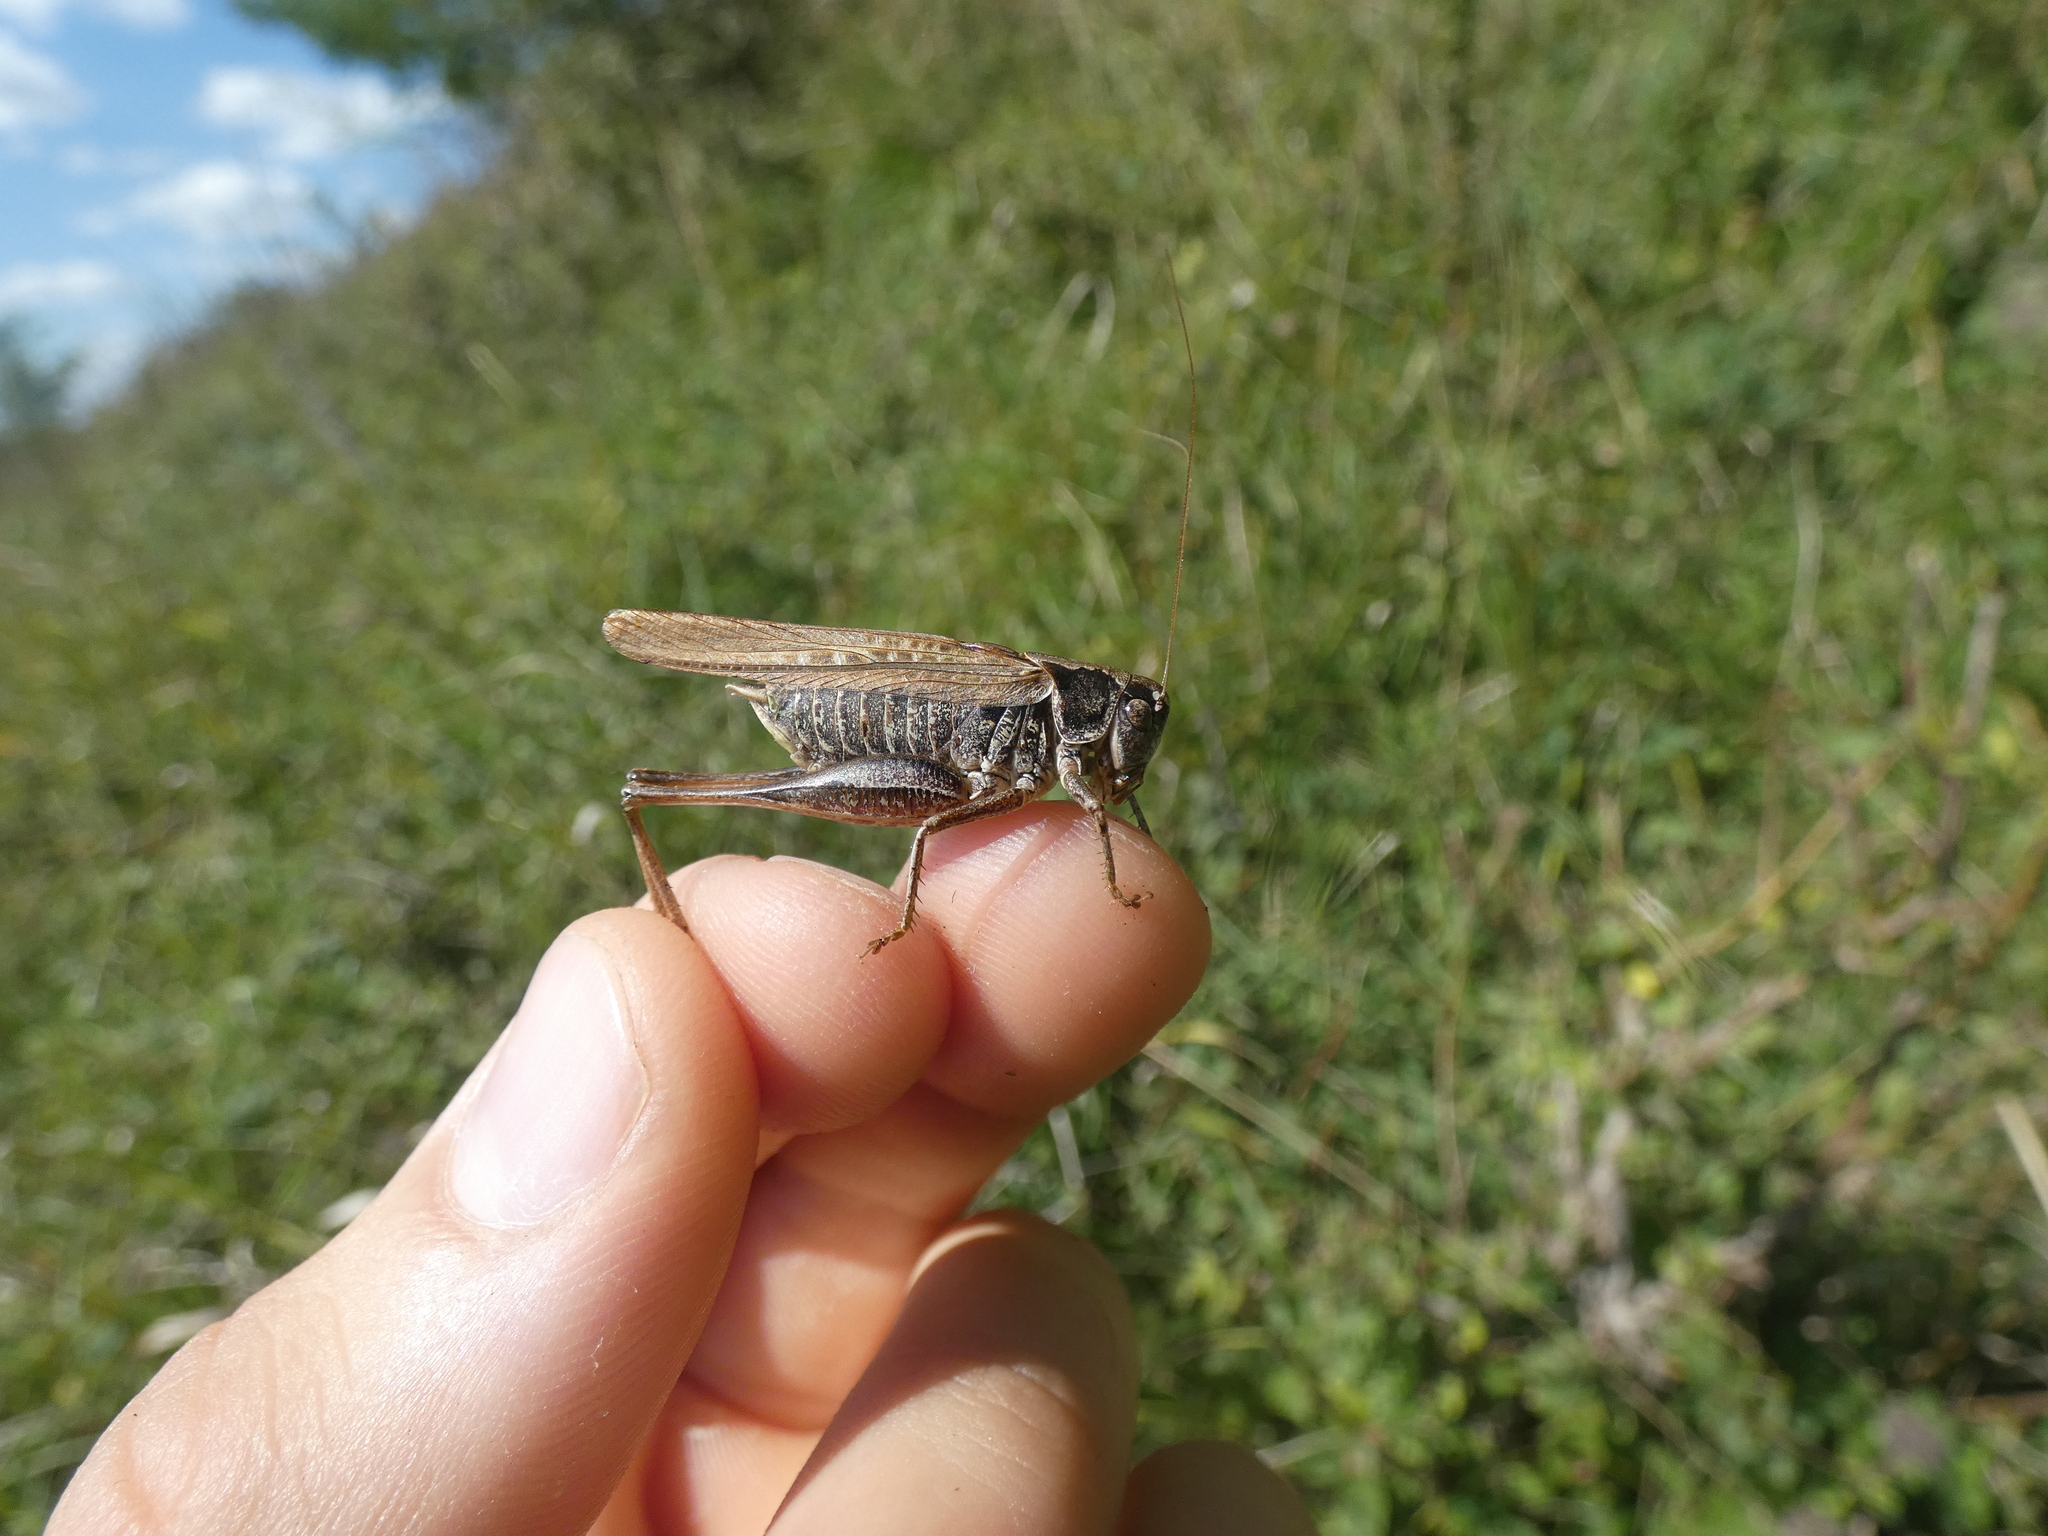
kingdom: Animalia
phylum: Arthropoda
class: Insecta
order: Orthoptera
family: Tettigoniidae
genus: Platycleis
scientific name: Platycleis albopunctata
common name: Grey bush-cricket
